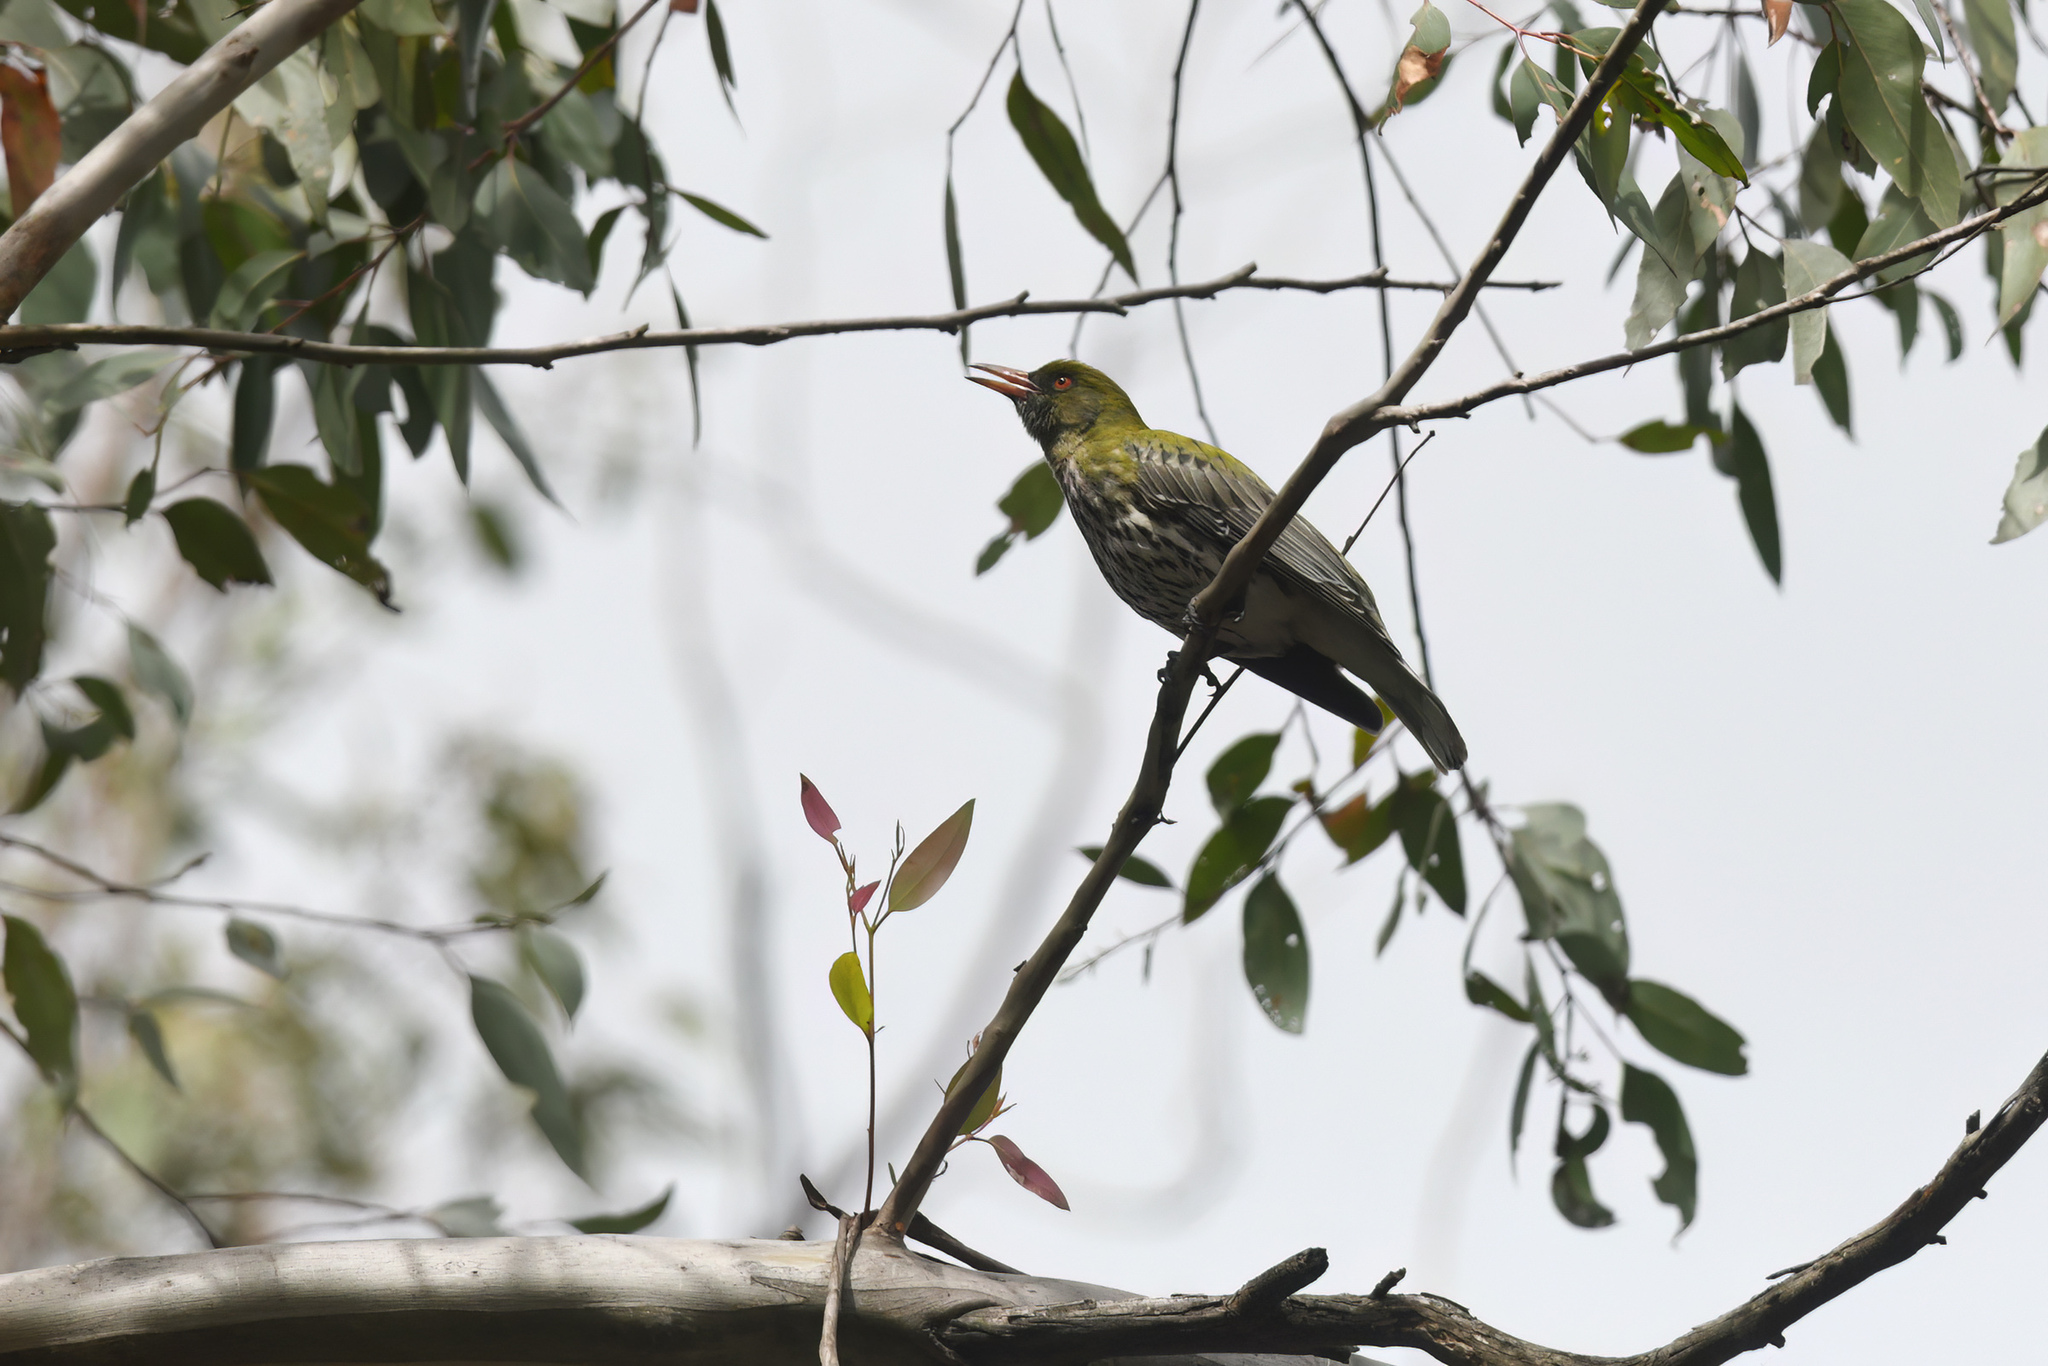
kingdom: Animalia
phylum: Chordata
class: Aves
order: Passeriformes
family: Oriolidae
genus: Oriolus
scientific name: Oriolus sagittatus
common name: Olive-backed oriole
